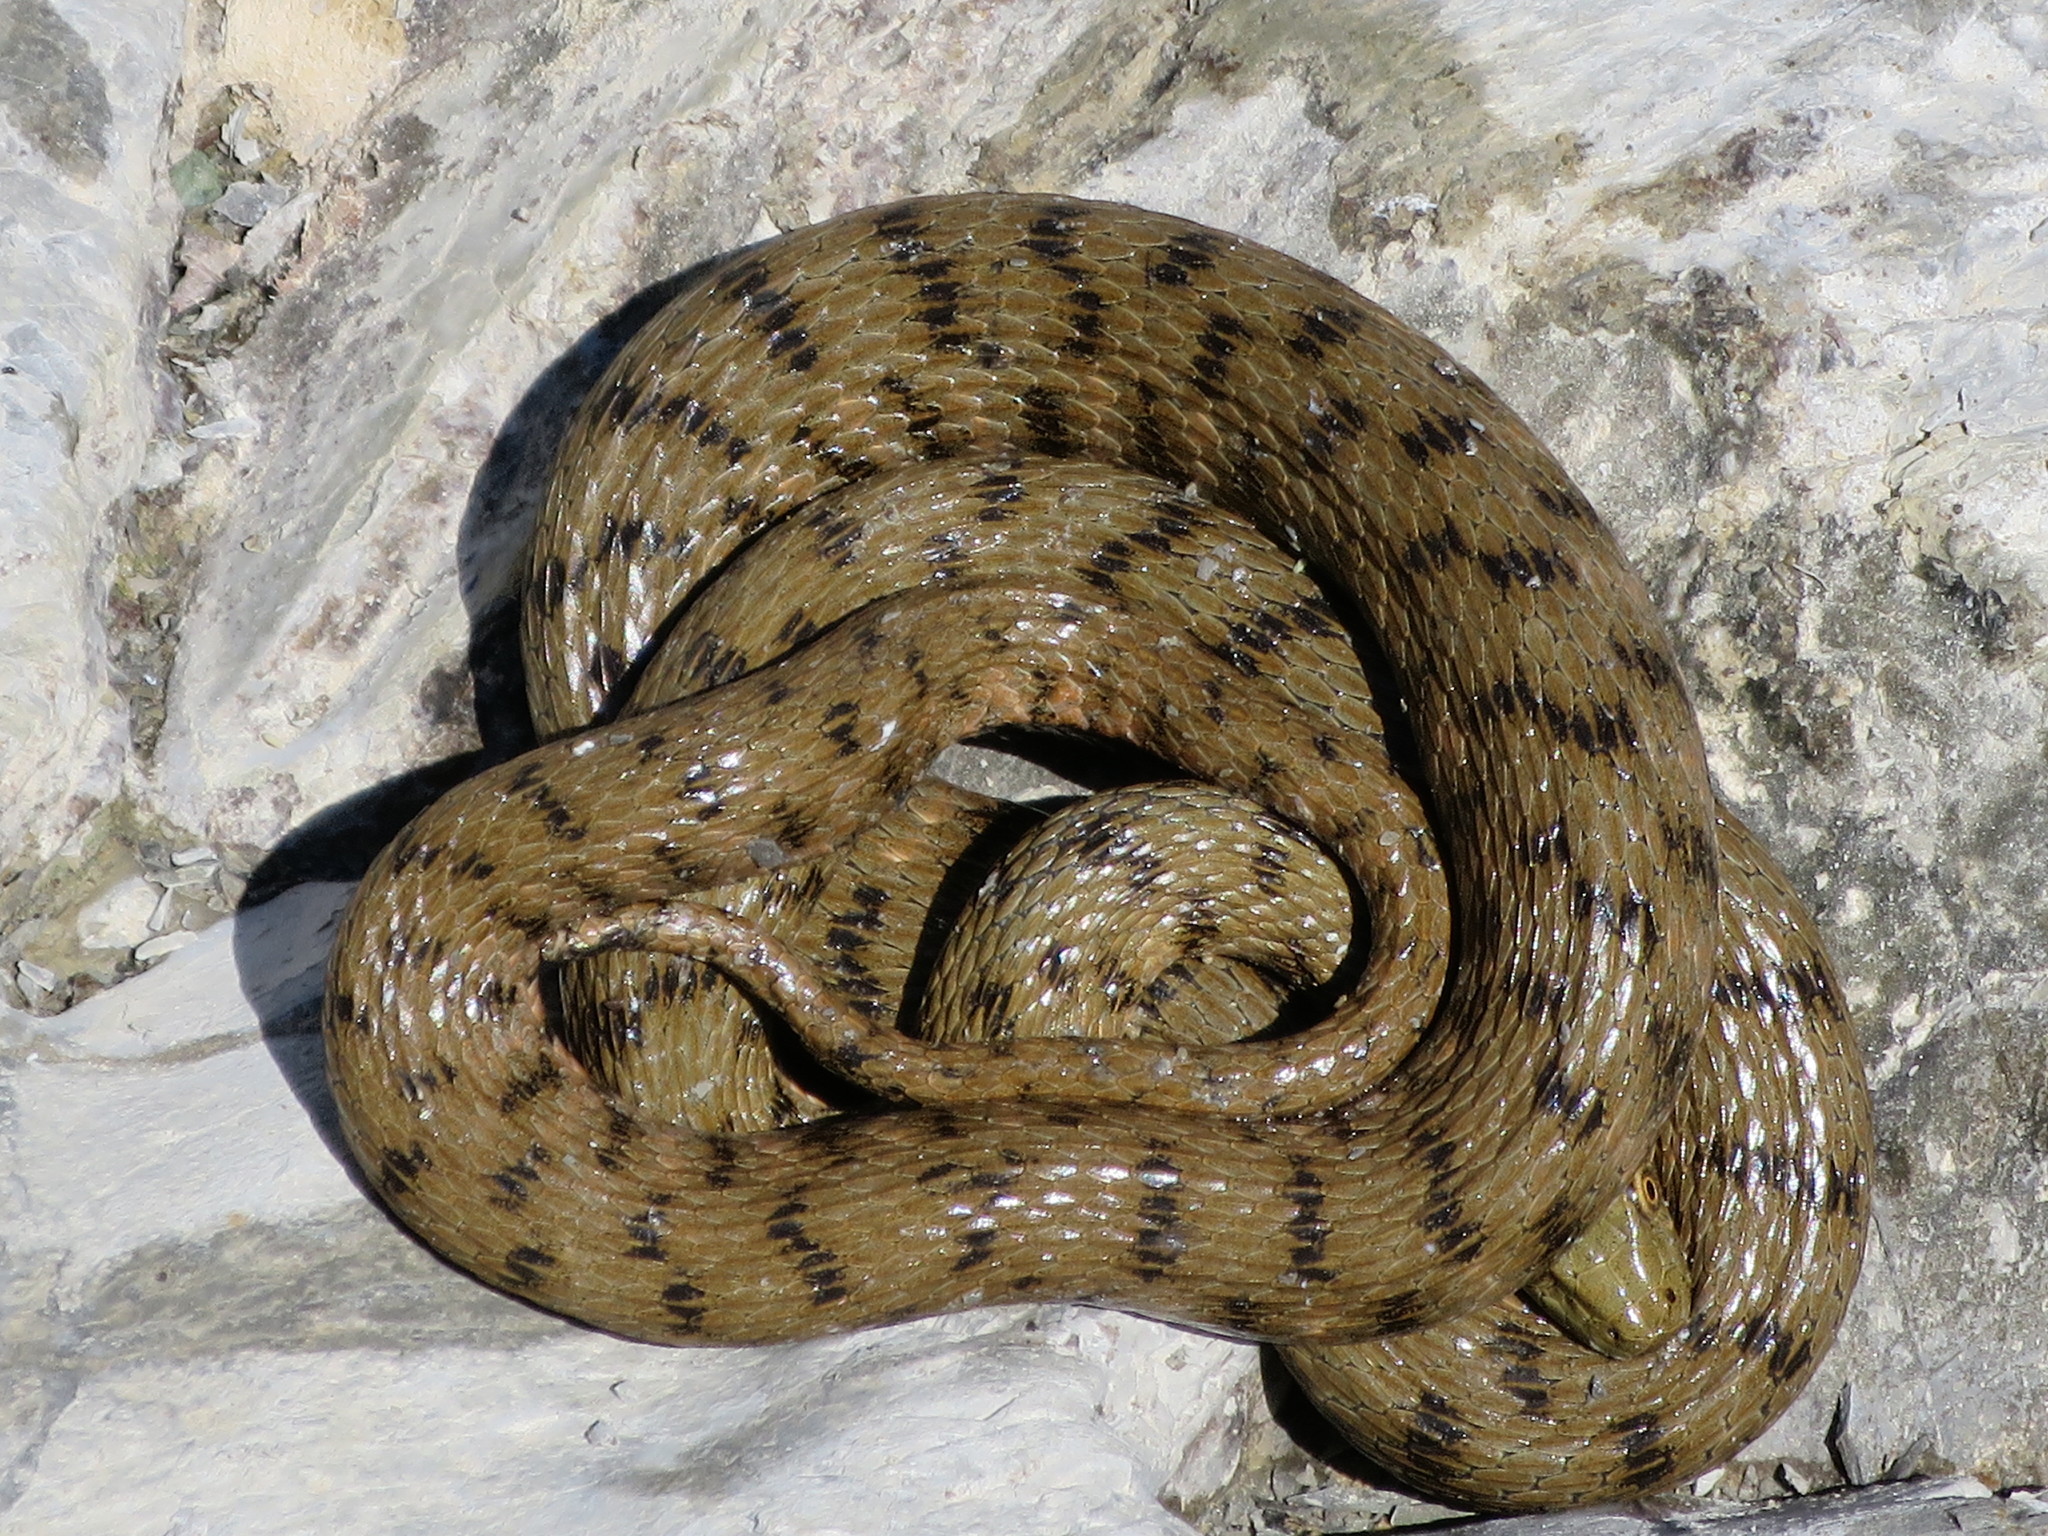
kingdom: Animalia
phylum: Chordata
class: Squamata
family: Colubridae
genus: Natrix
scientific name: Natrix tessellata
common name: Dice snake
